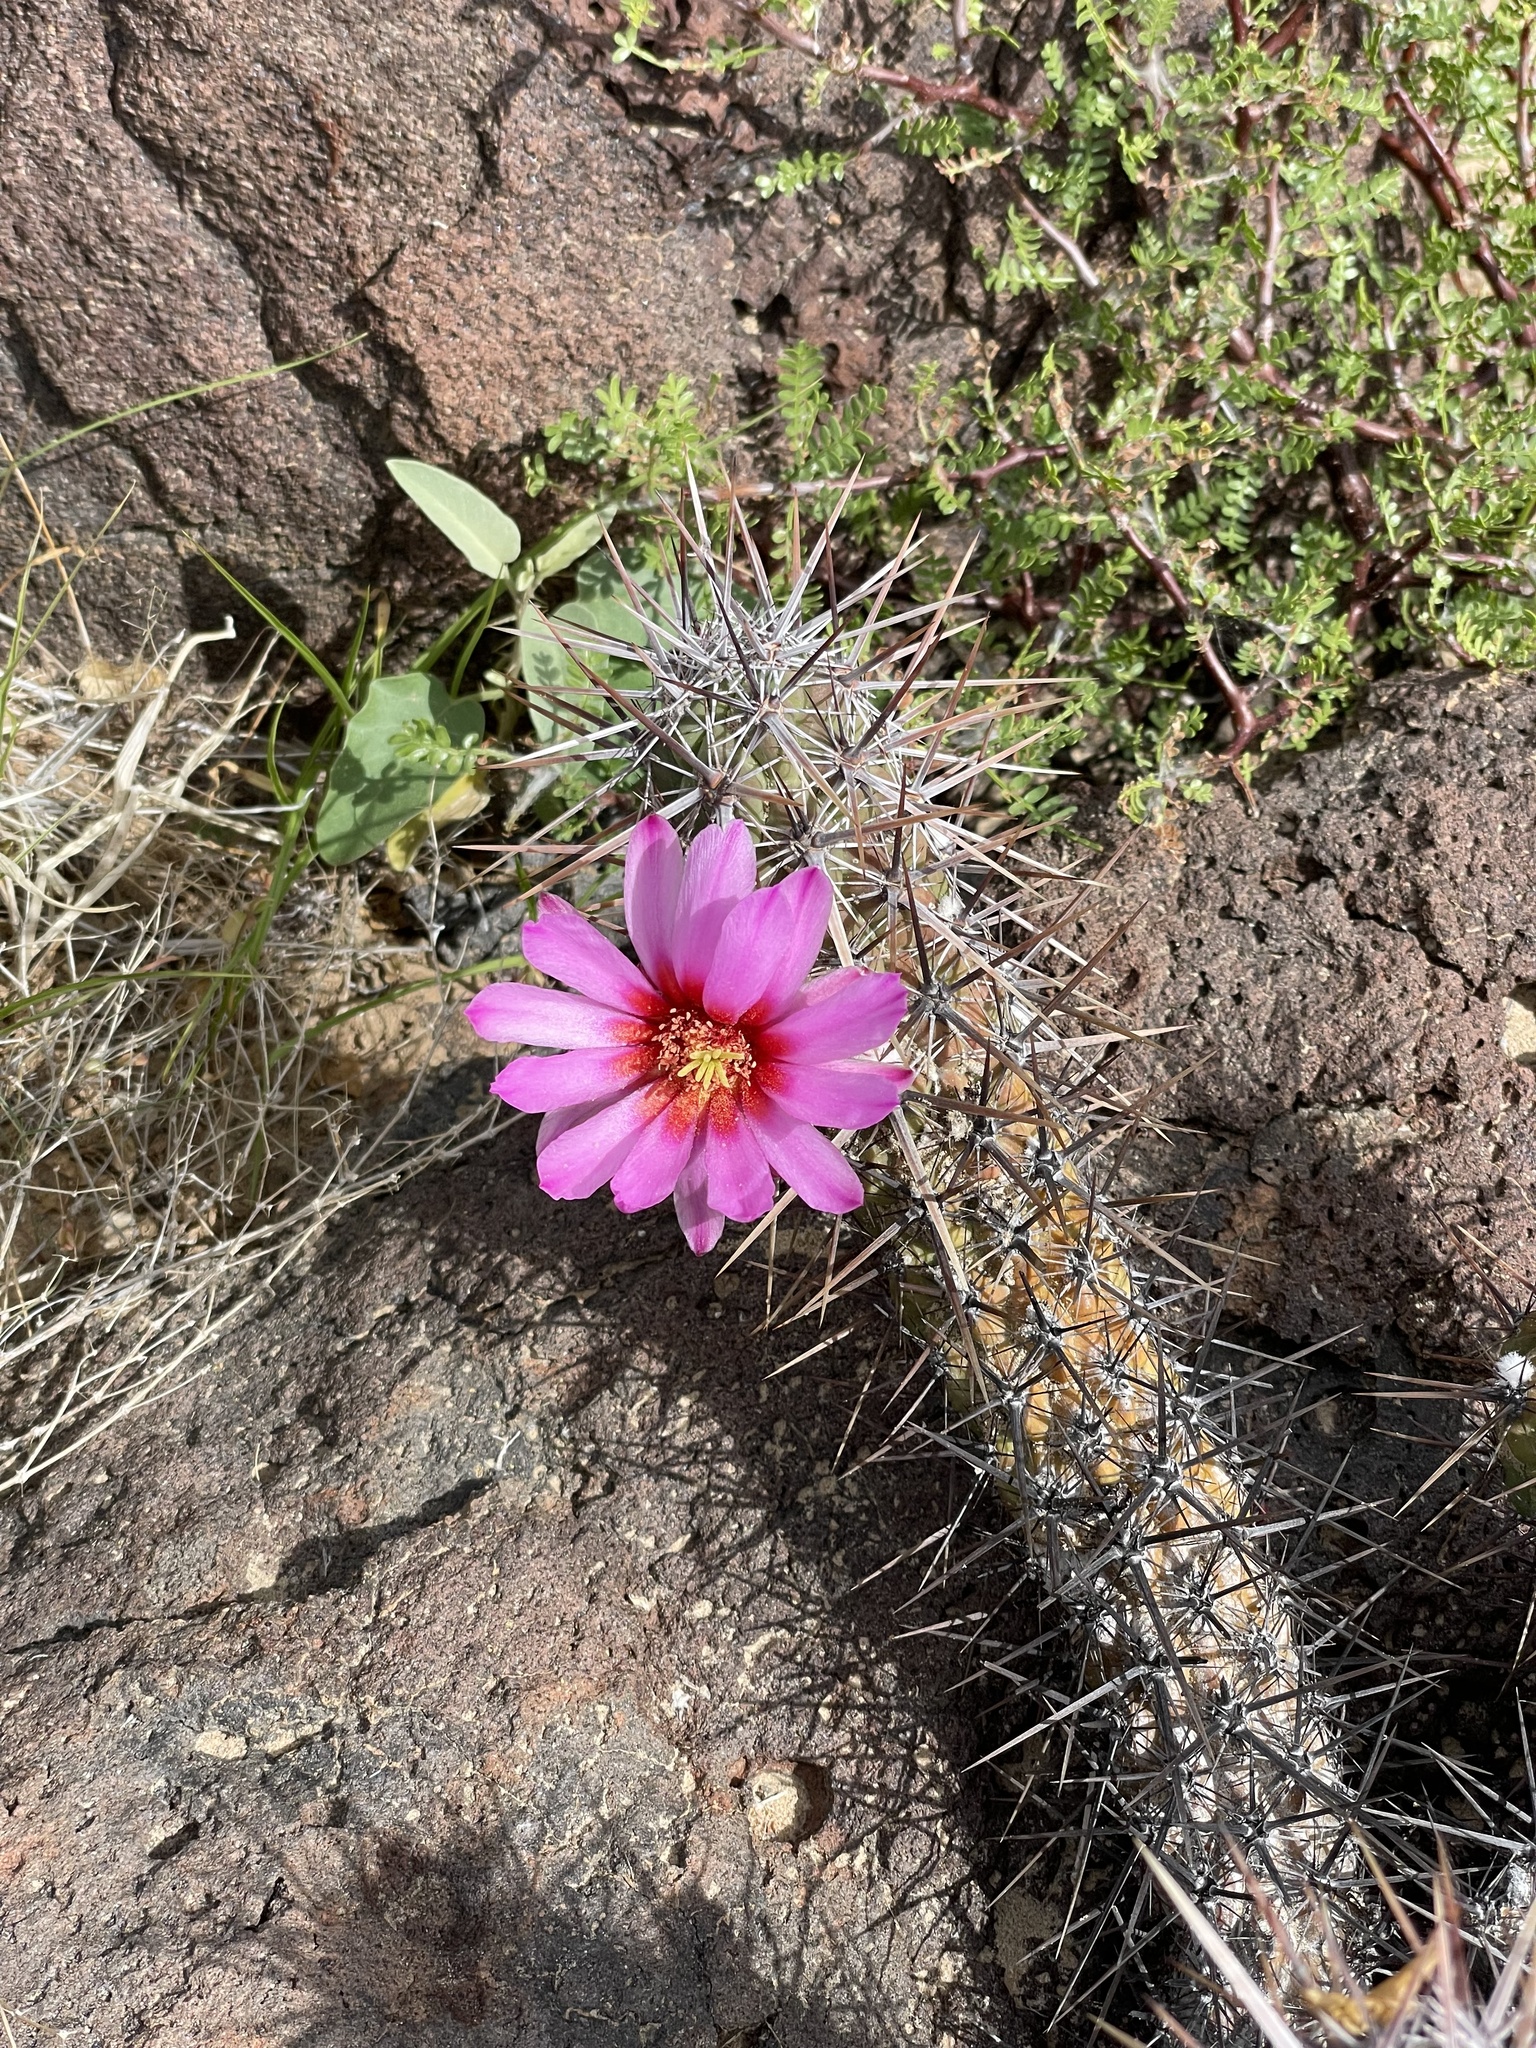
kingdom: Plantae
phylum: Tracheophyta
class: Magnoliopsida
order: Caryophyllales
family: Cactaceae
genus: Echinocereus
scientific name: Echinocereus brandegeei
